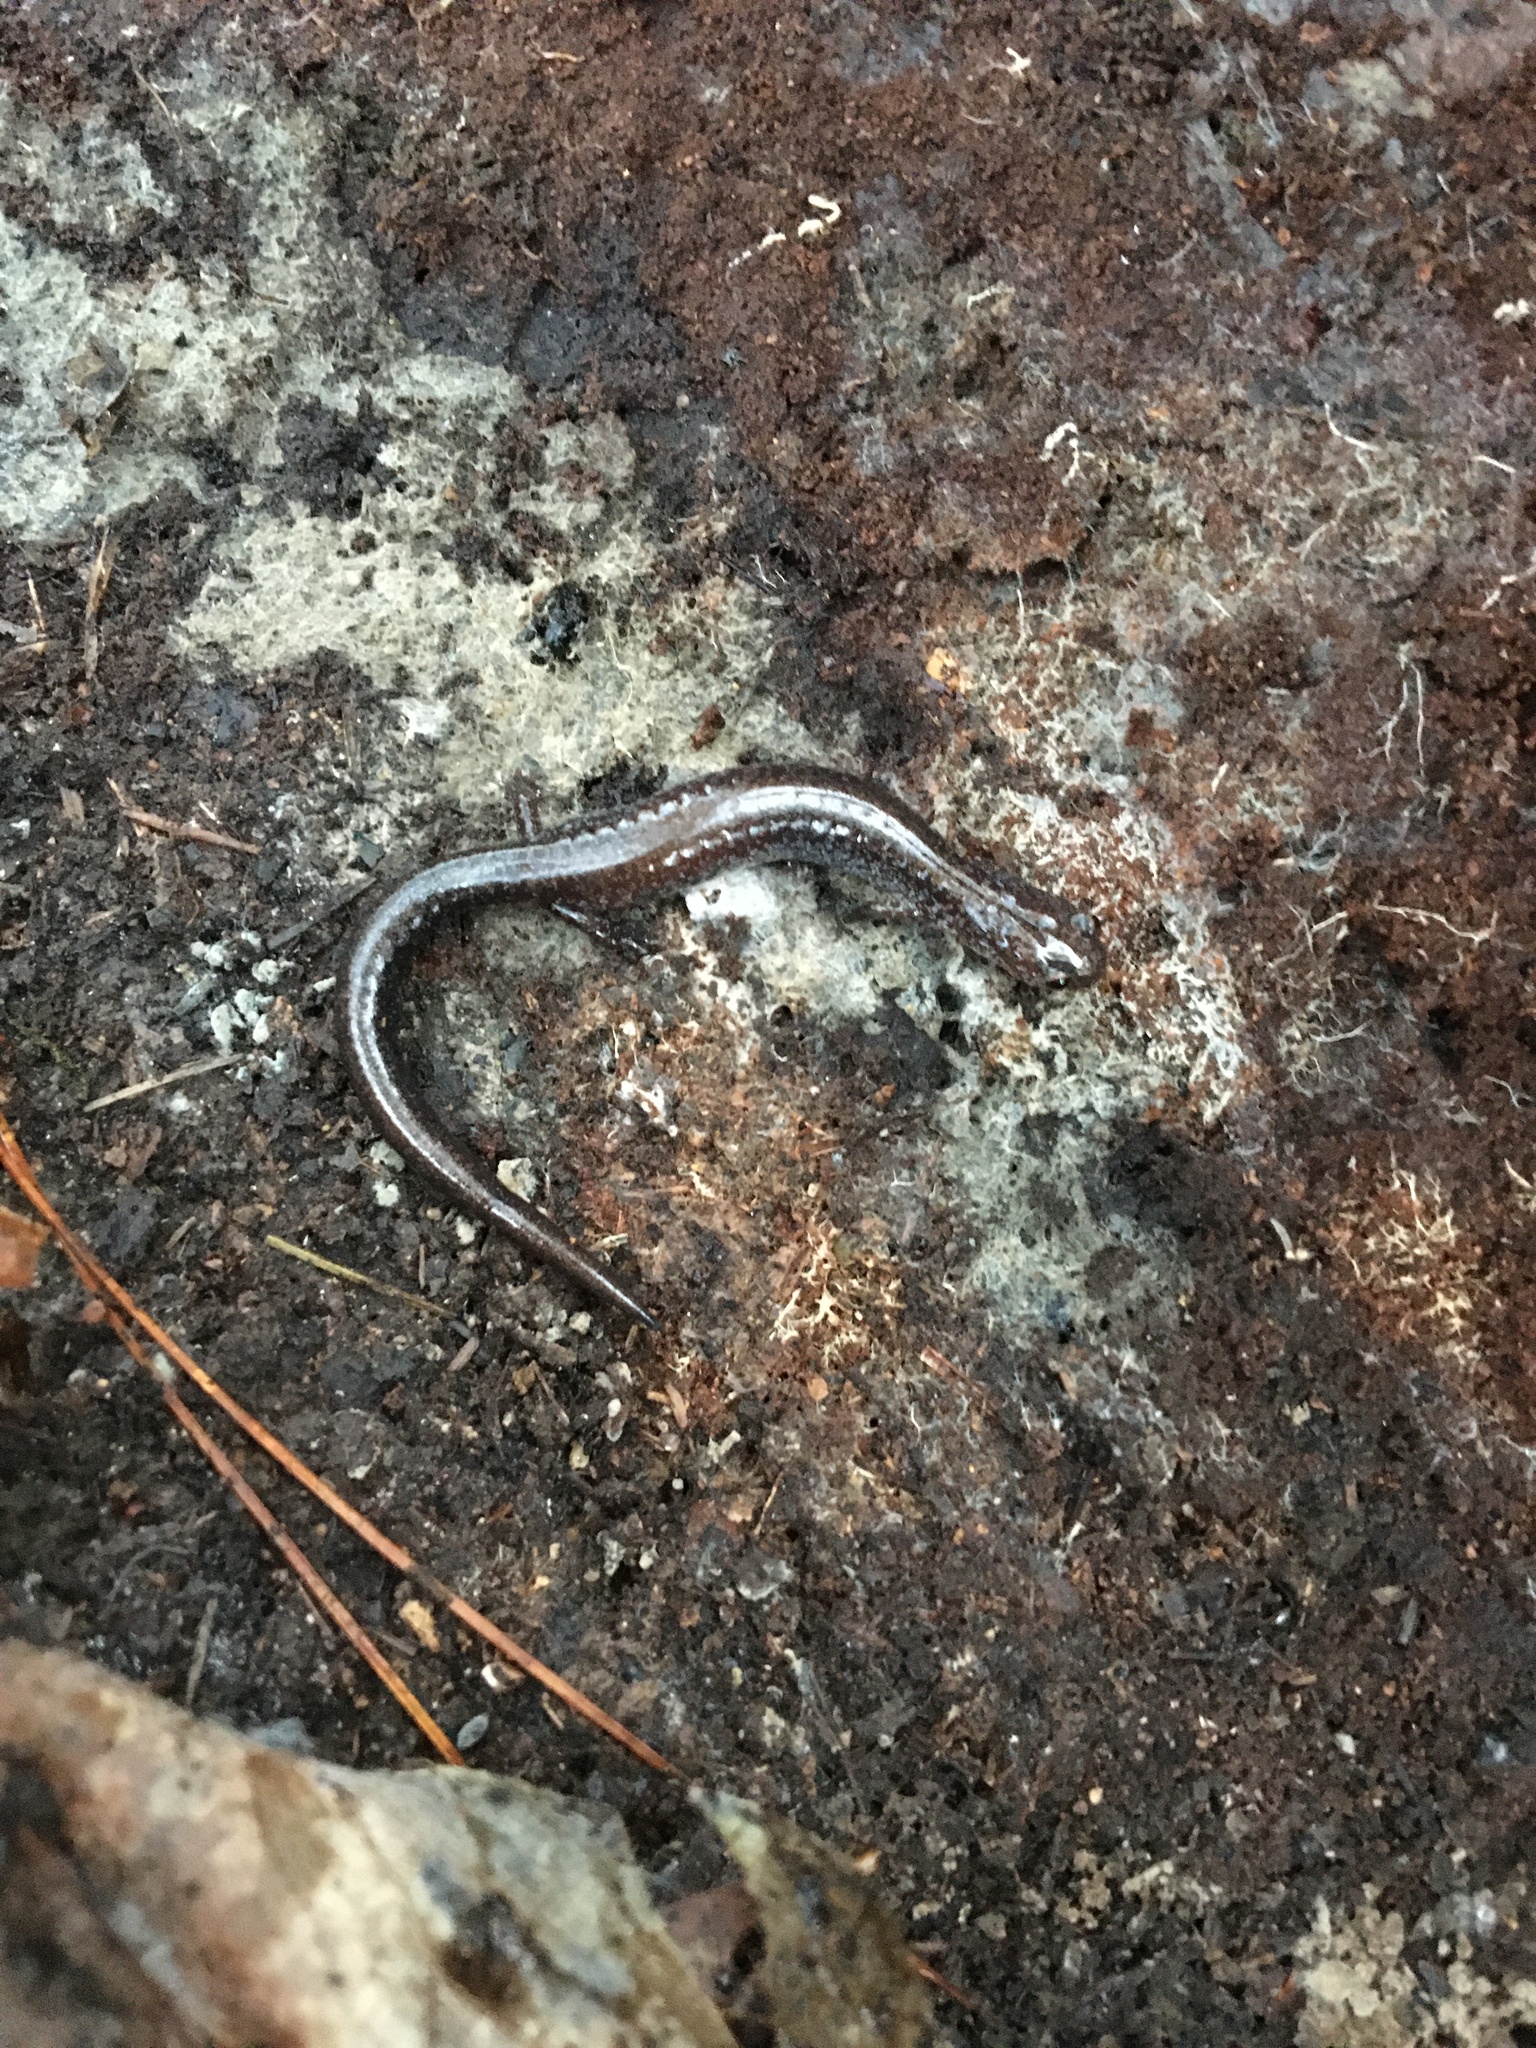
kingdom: Animalia
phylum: Chordata
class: Amphibia
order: Caudata
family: Plethodontidae
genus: Plethodon
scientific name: Plethodon cinereus
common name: Redback salamander
